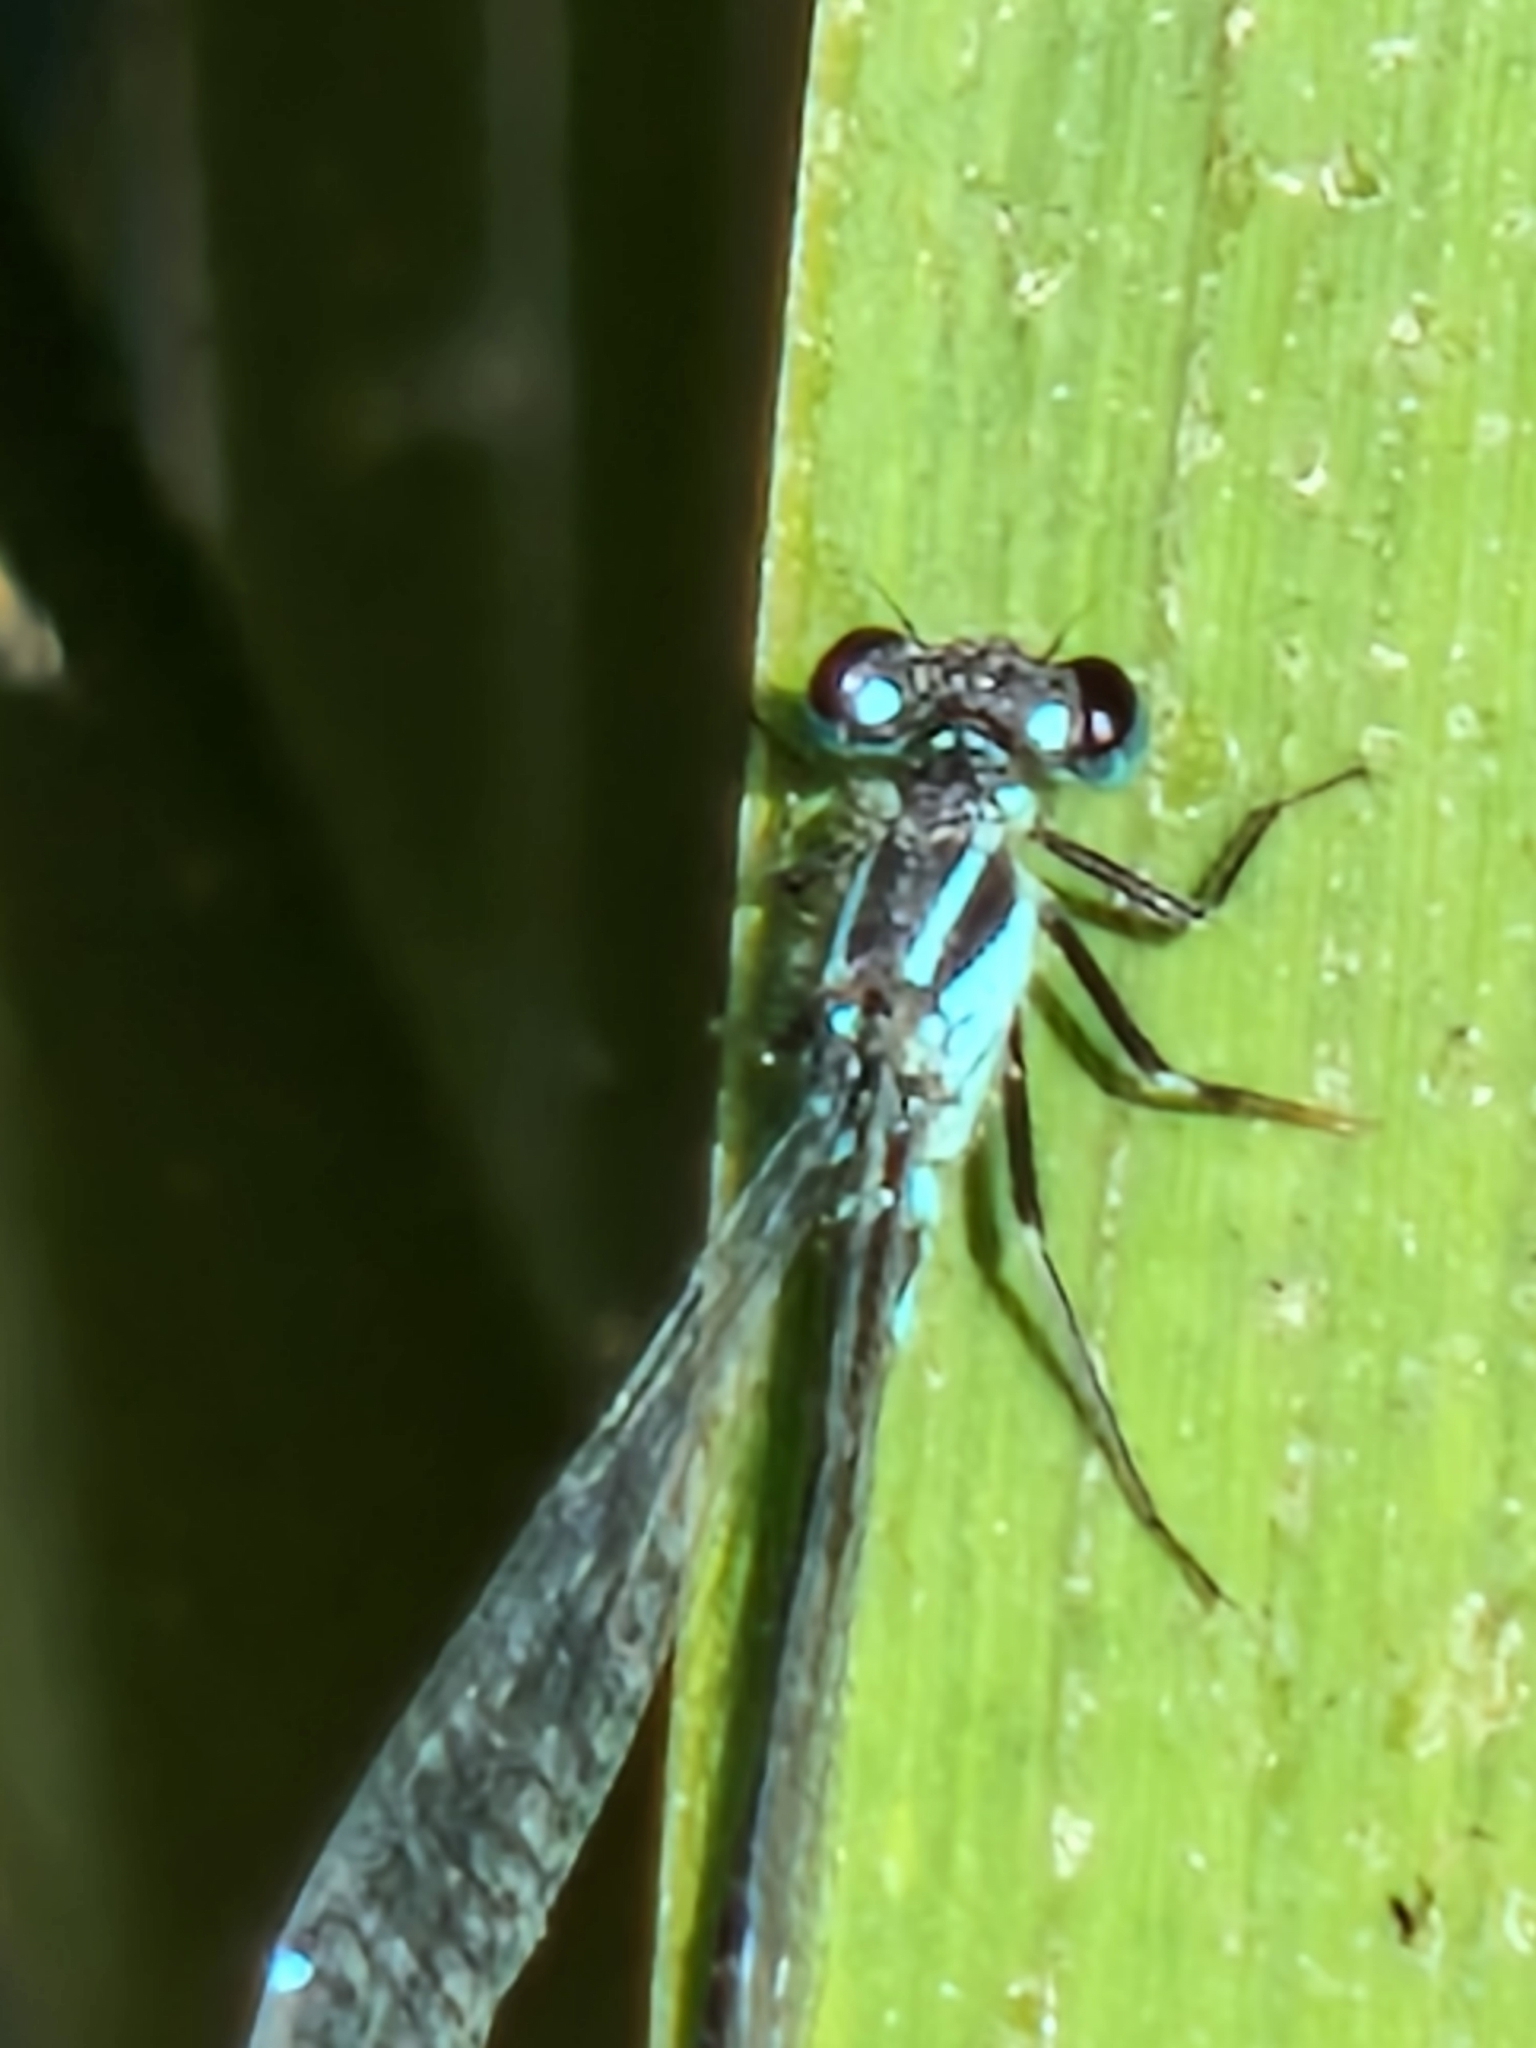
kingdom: Animalia
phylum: Arthropoda
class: Insecta
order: Odonata
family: Coenagrionidae
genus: Ischnura
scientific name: Ischnura elegans
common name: Blue-tailed damselfly
